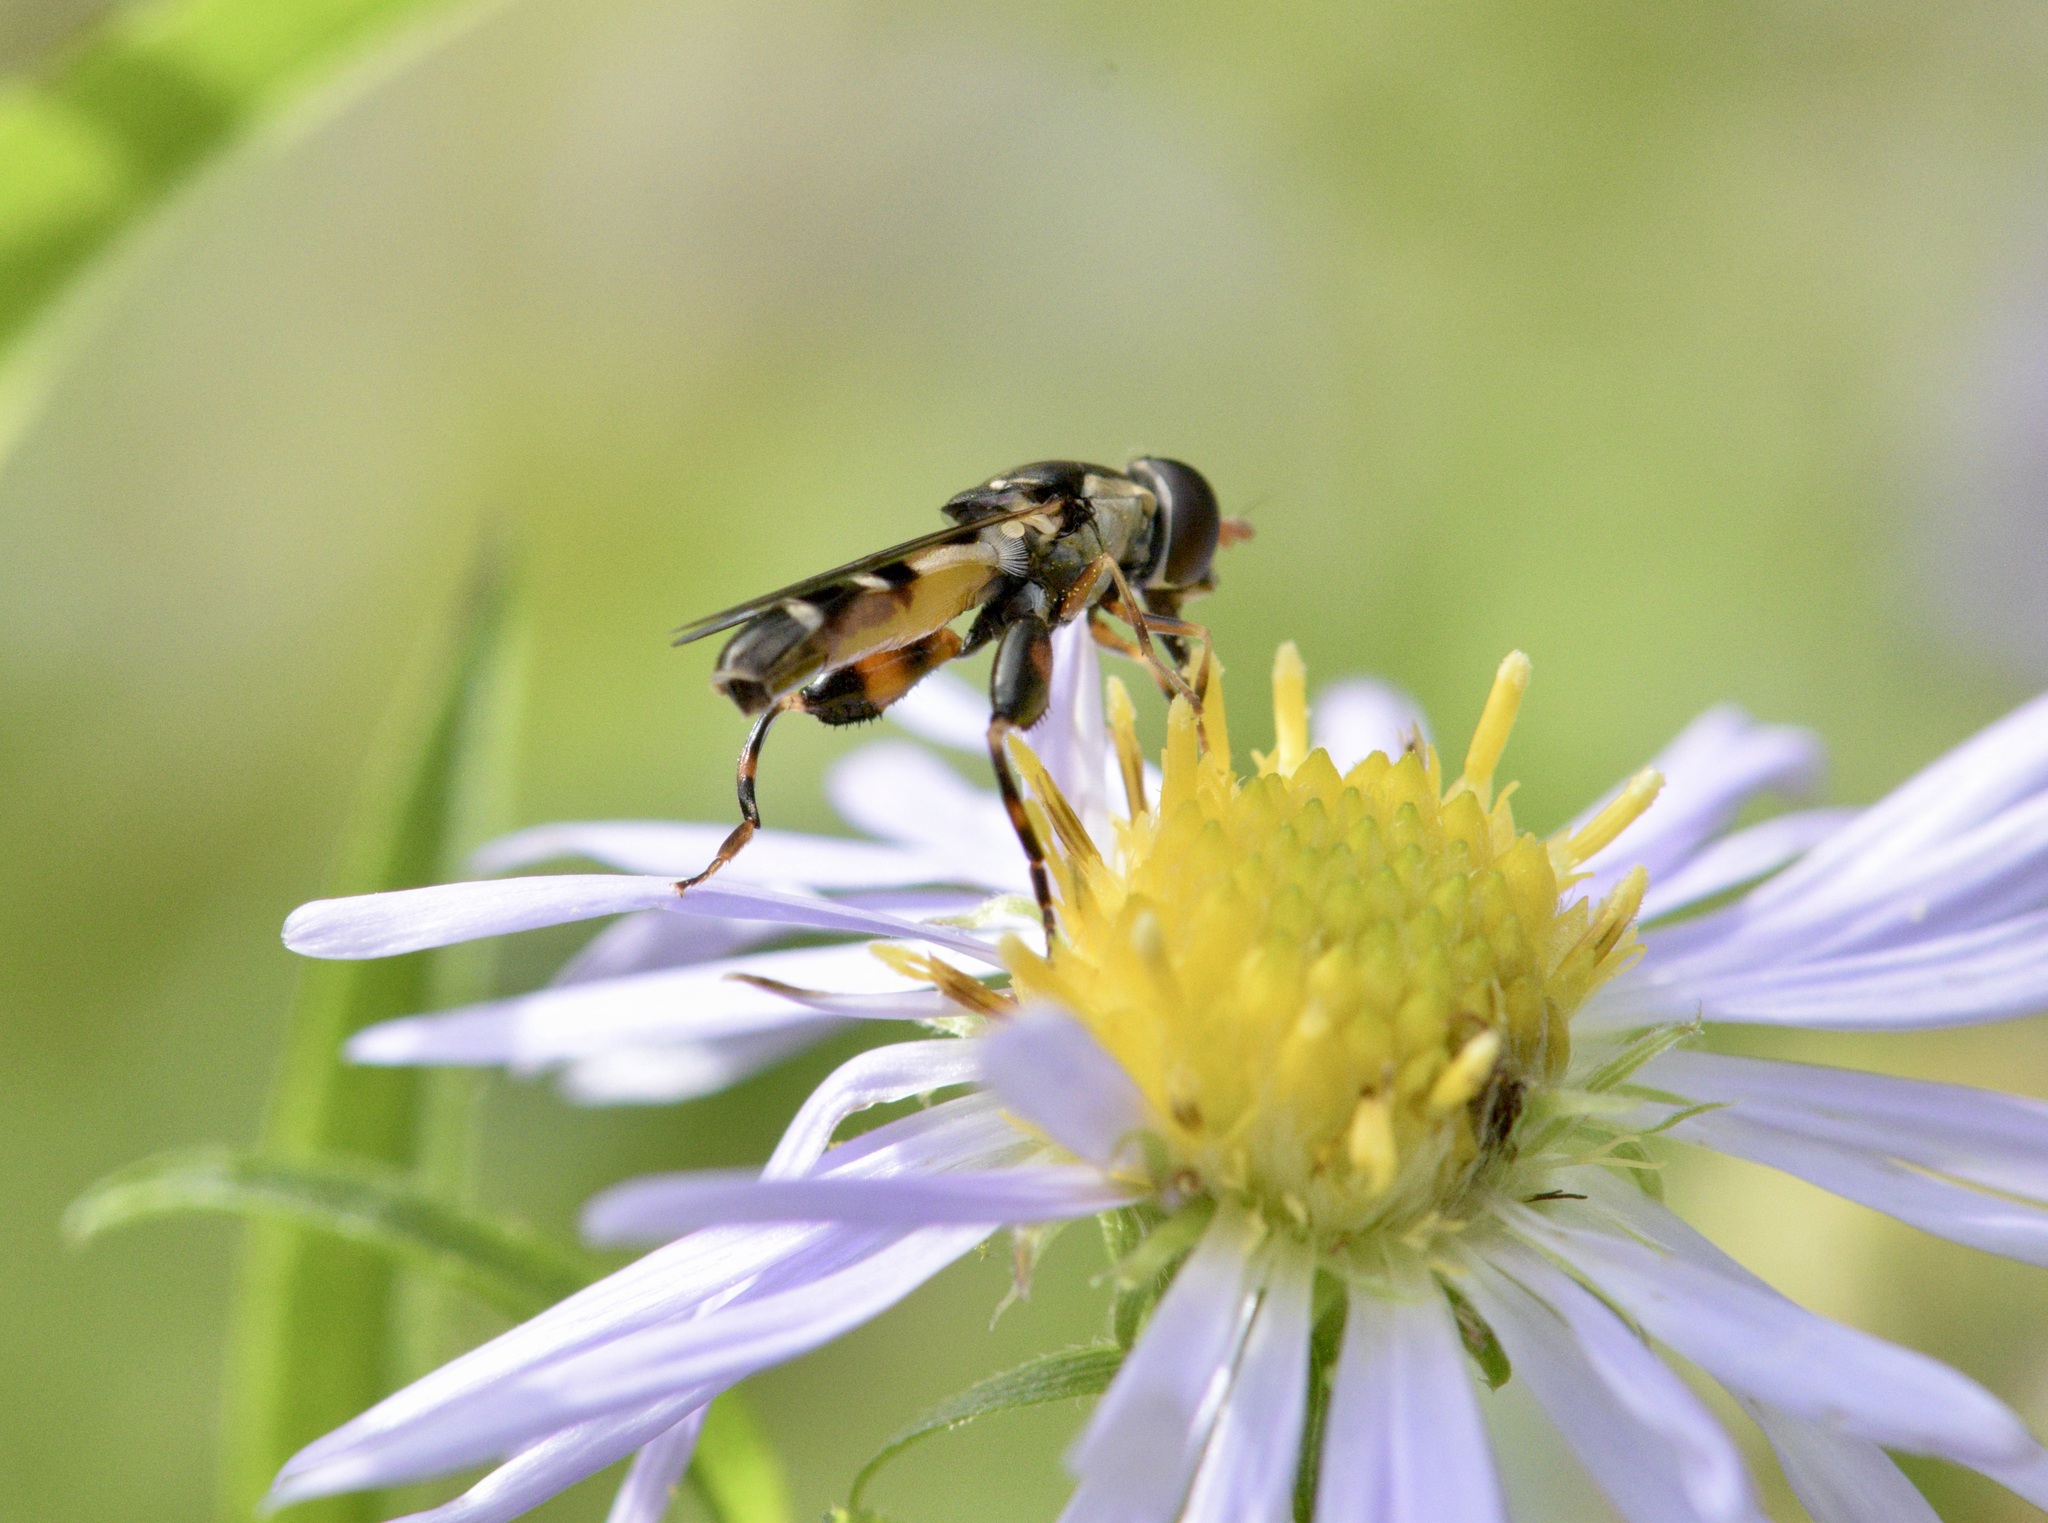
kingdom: Animalia
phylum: Arthropoda
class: Insecta
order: Diptera
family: Syrphidae
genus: Syritta
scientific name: Syritta pipiens
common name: Hover fly
